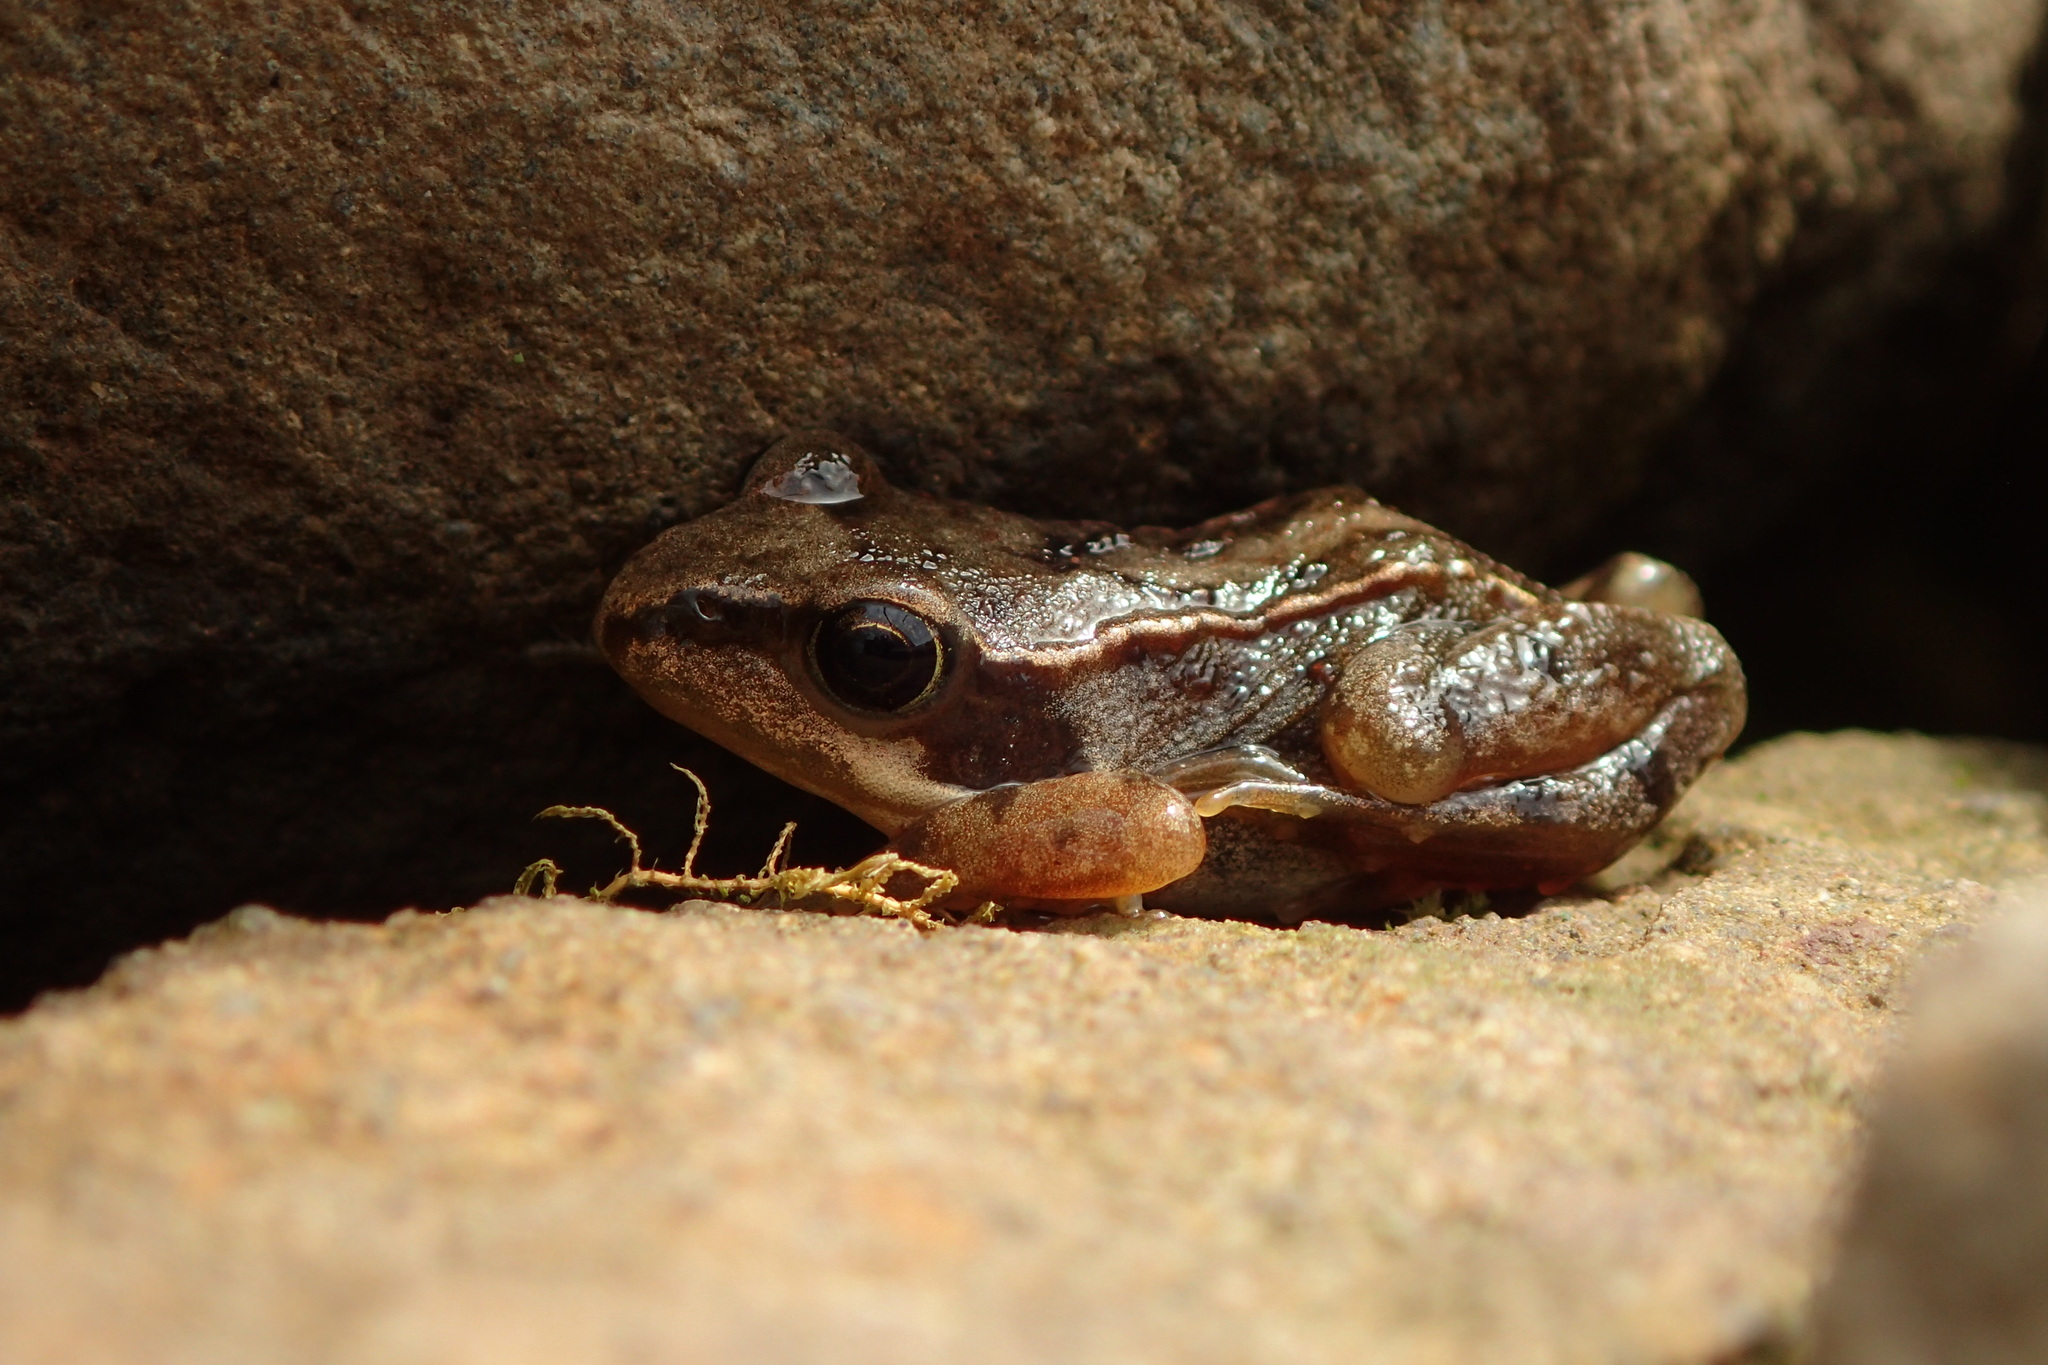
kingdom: Animalia
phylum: Chordata
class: Amphibia
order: Anura
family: Ranidae
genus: Rana
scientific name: Rana temporaria
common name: Common frog
